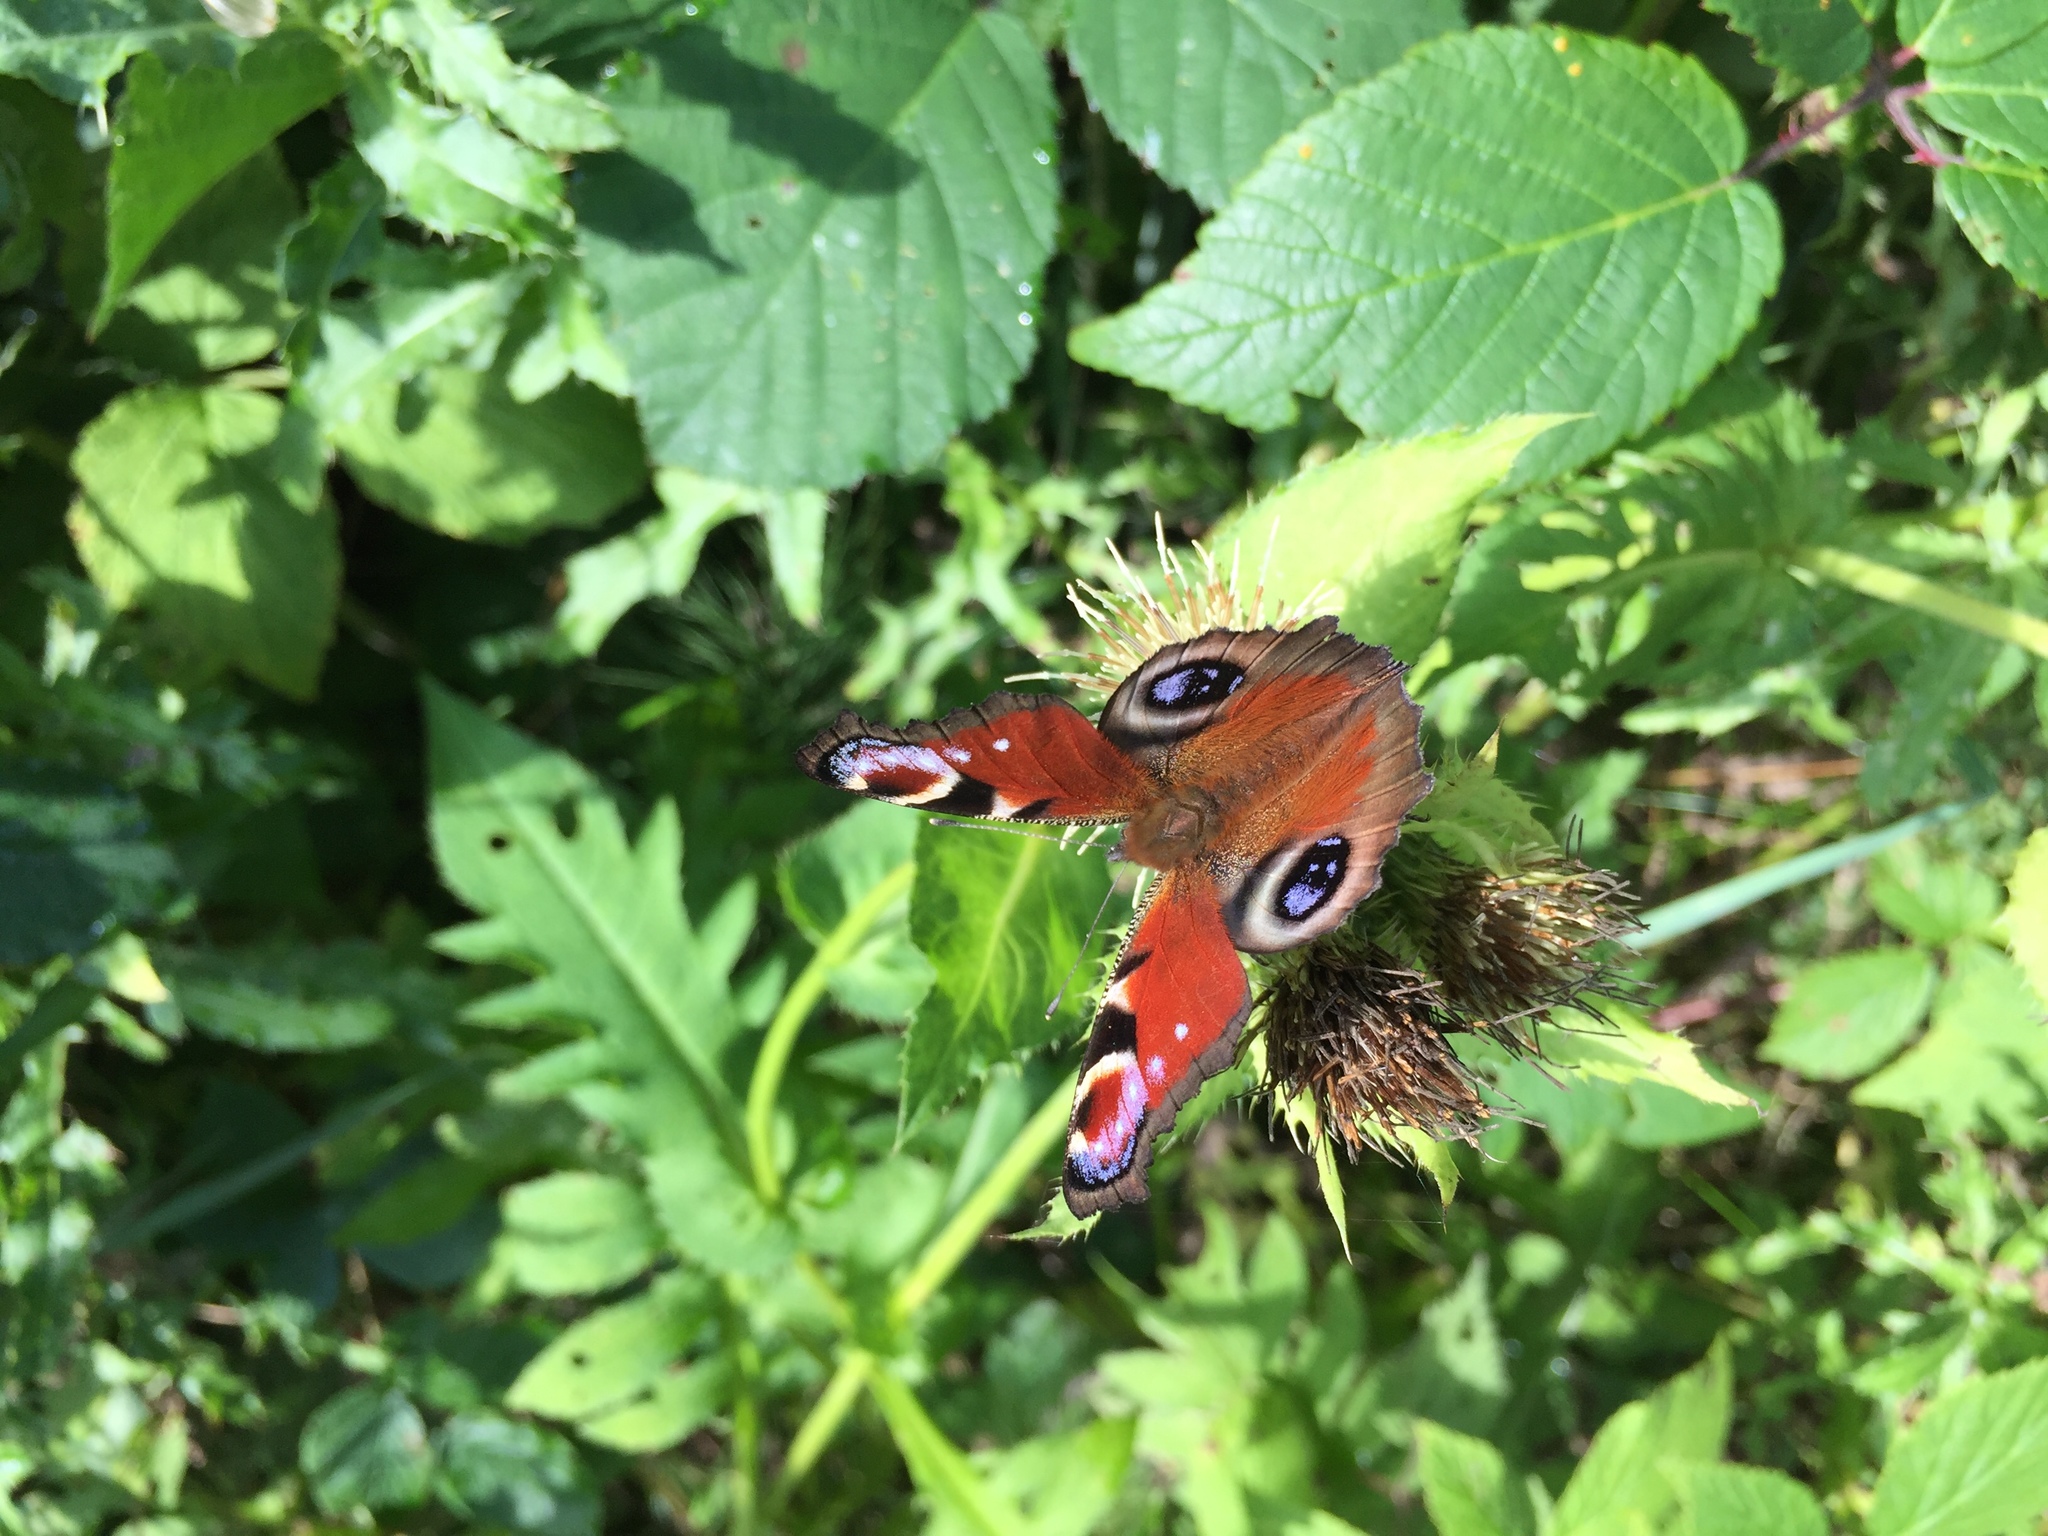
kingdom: Animalia
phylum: Arthropoda
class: Insecta
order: Lepidoptera
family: Nymphalidae
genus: Aglais
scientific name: Aglais io
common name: Peacock
